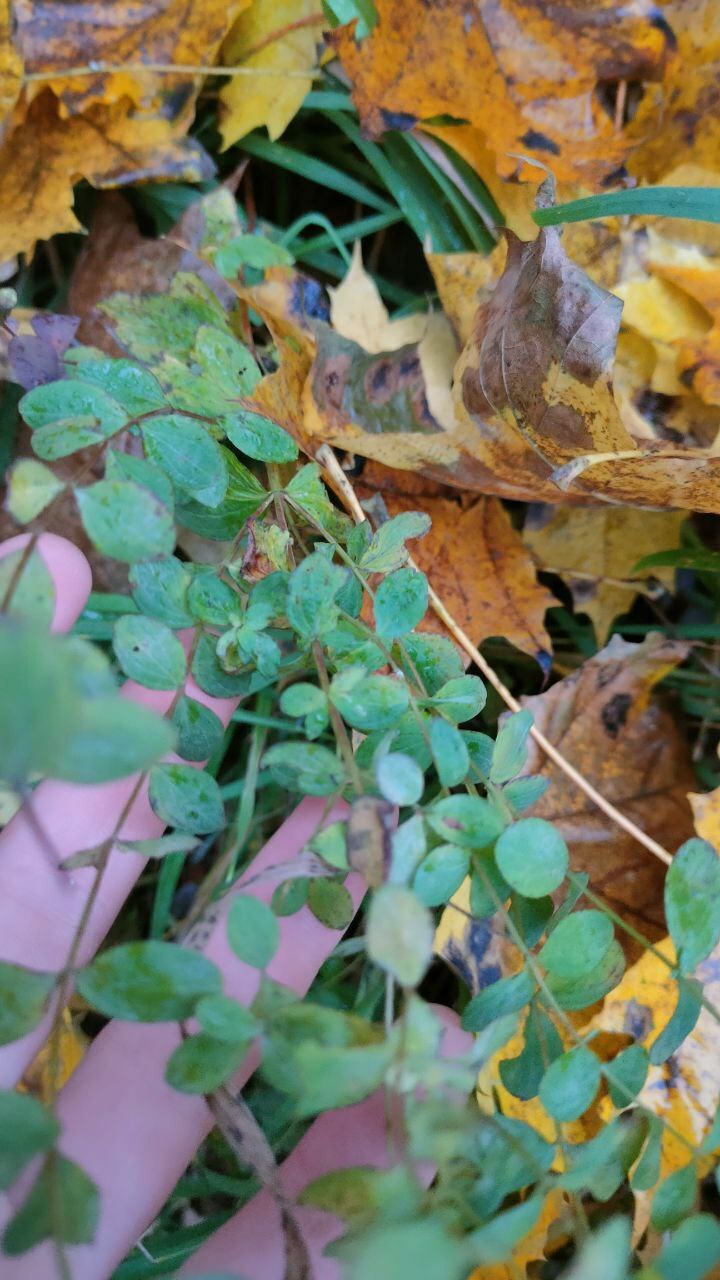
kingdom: Plantae
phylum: Tracheophyta
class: Magnoliopsida
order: Malpighiales
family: Hypericaceae
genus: Hypericum
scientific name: Hypericum perforatum
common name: Common st. johnswort
